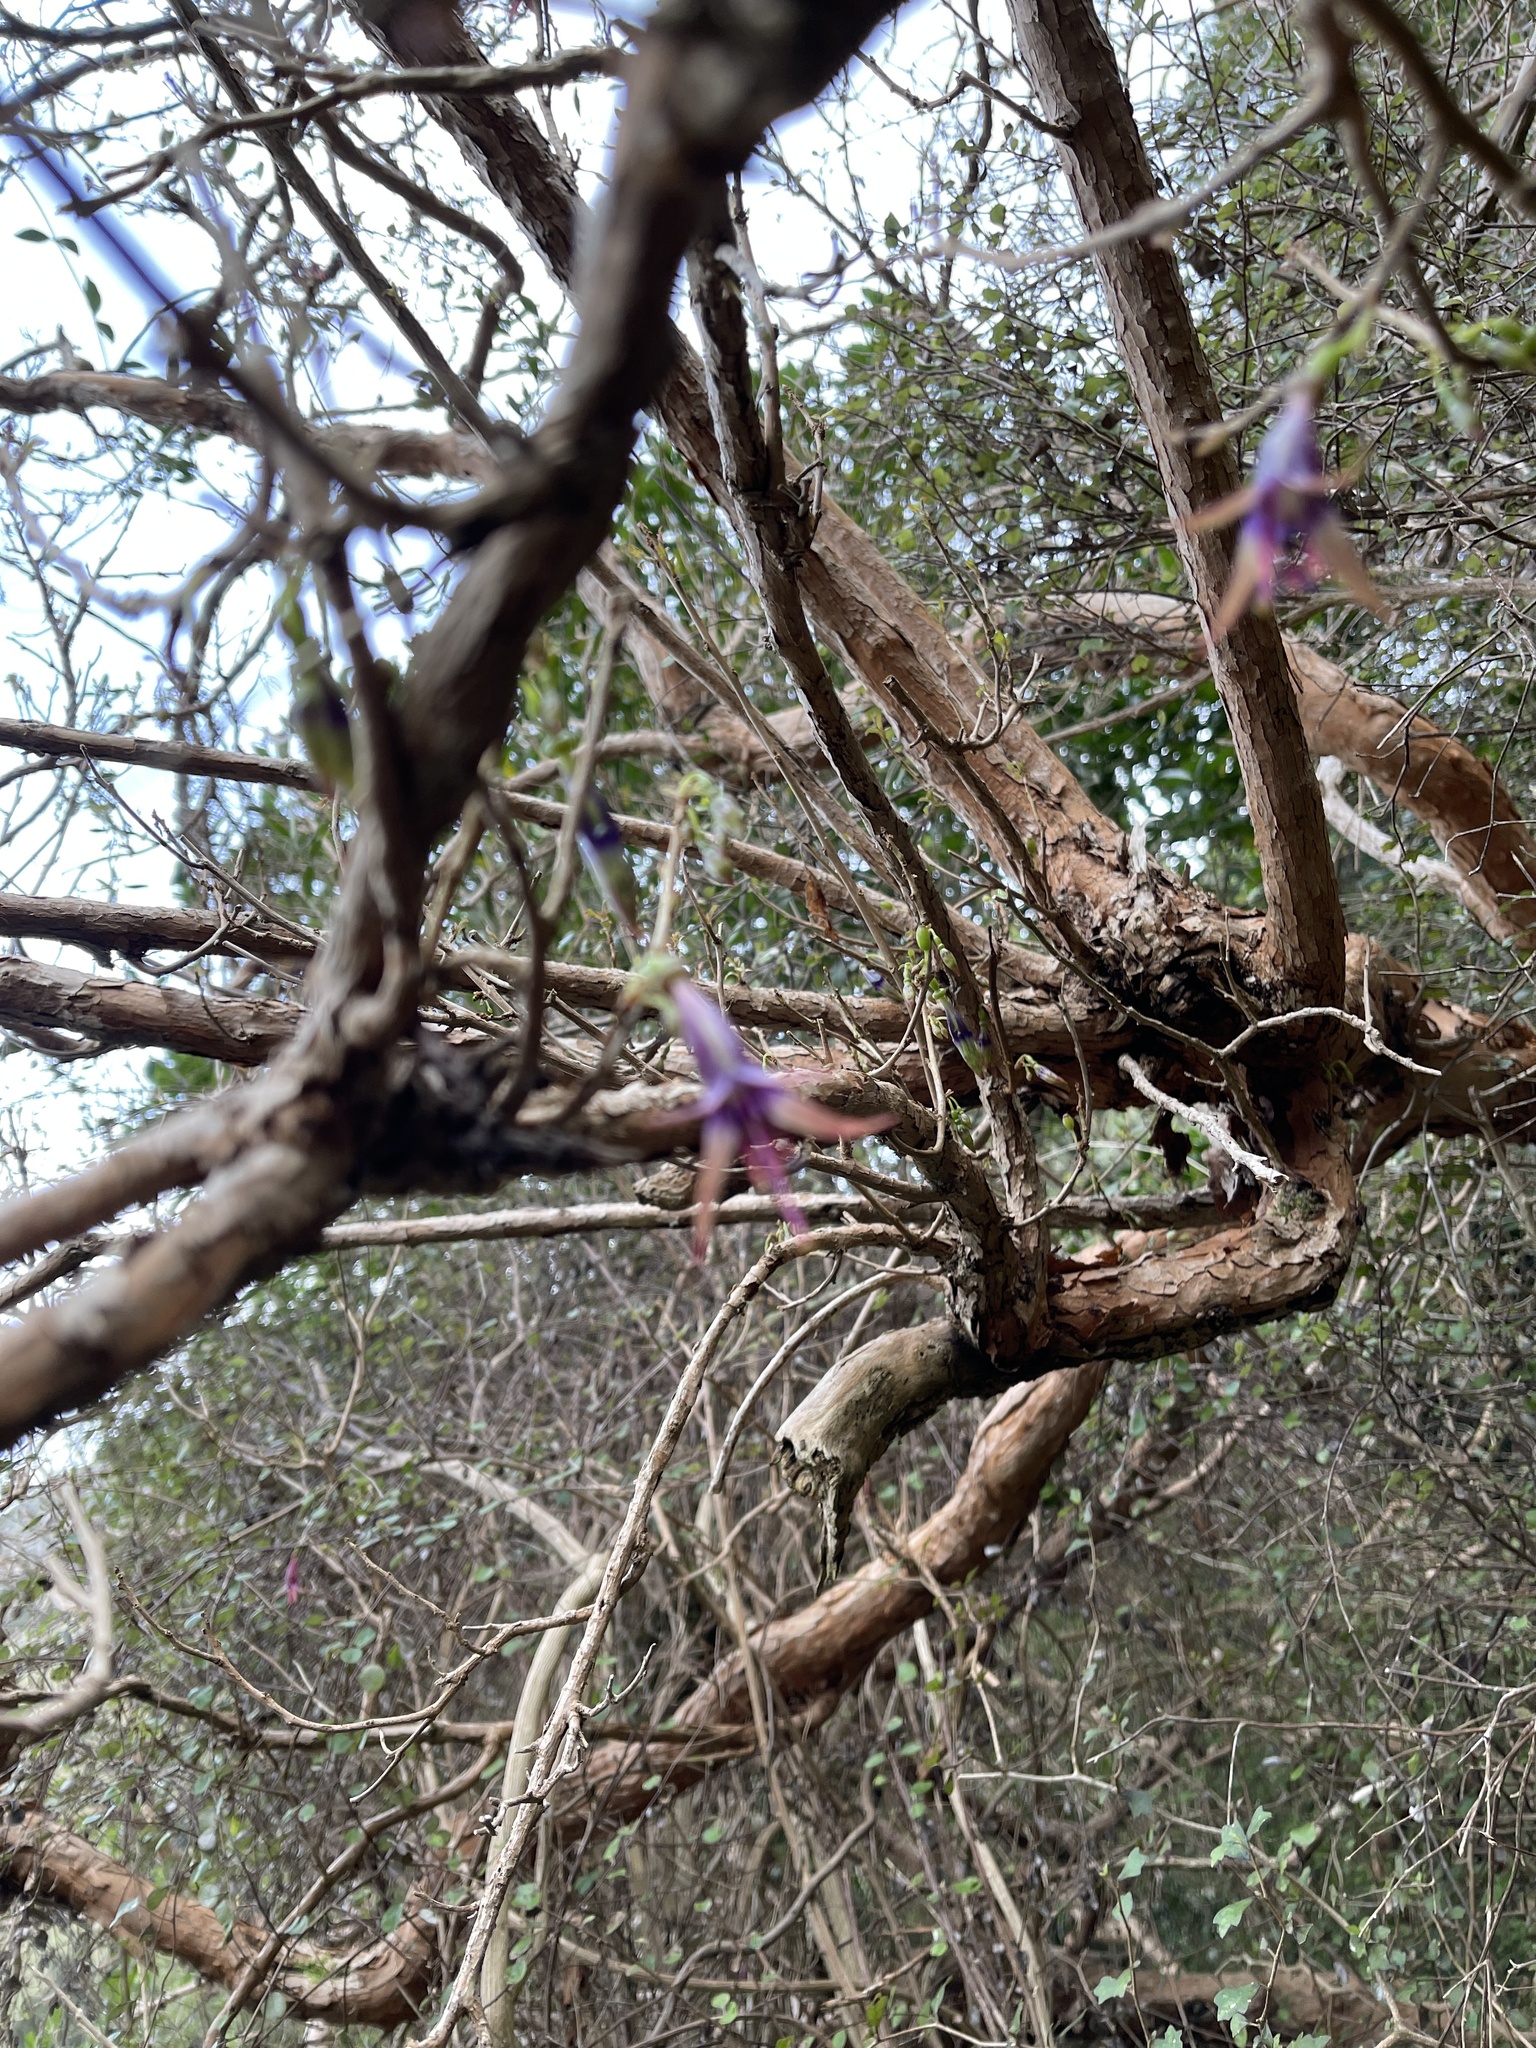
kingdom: Plantae
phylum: Tracheophyta
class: Magnoliopsida
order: Myrtales
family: Onagraceae
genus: Fuchsia
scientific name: Fuchsia excorticata
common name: Tree fuchsia
